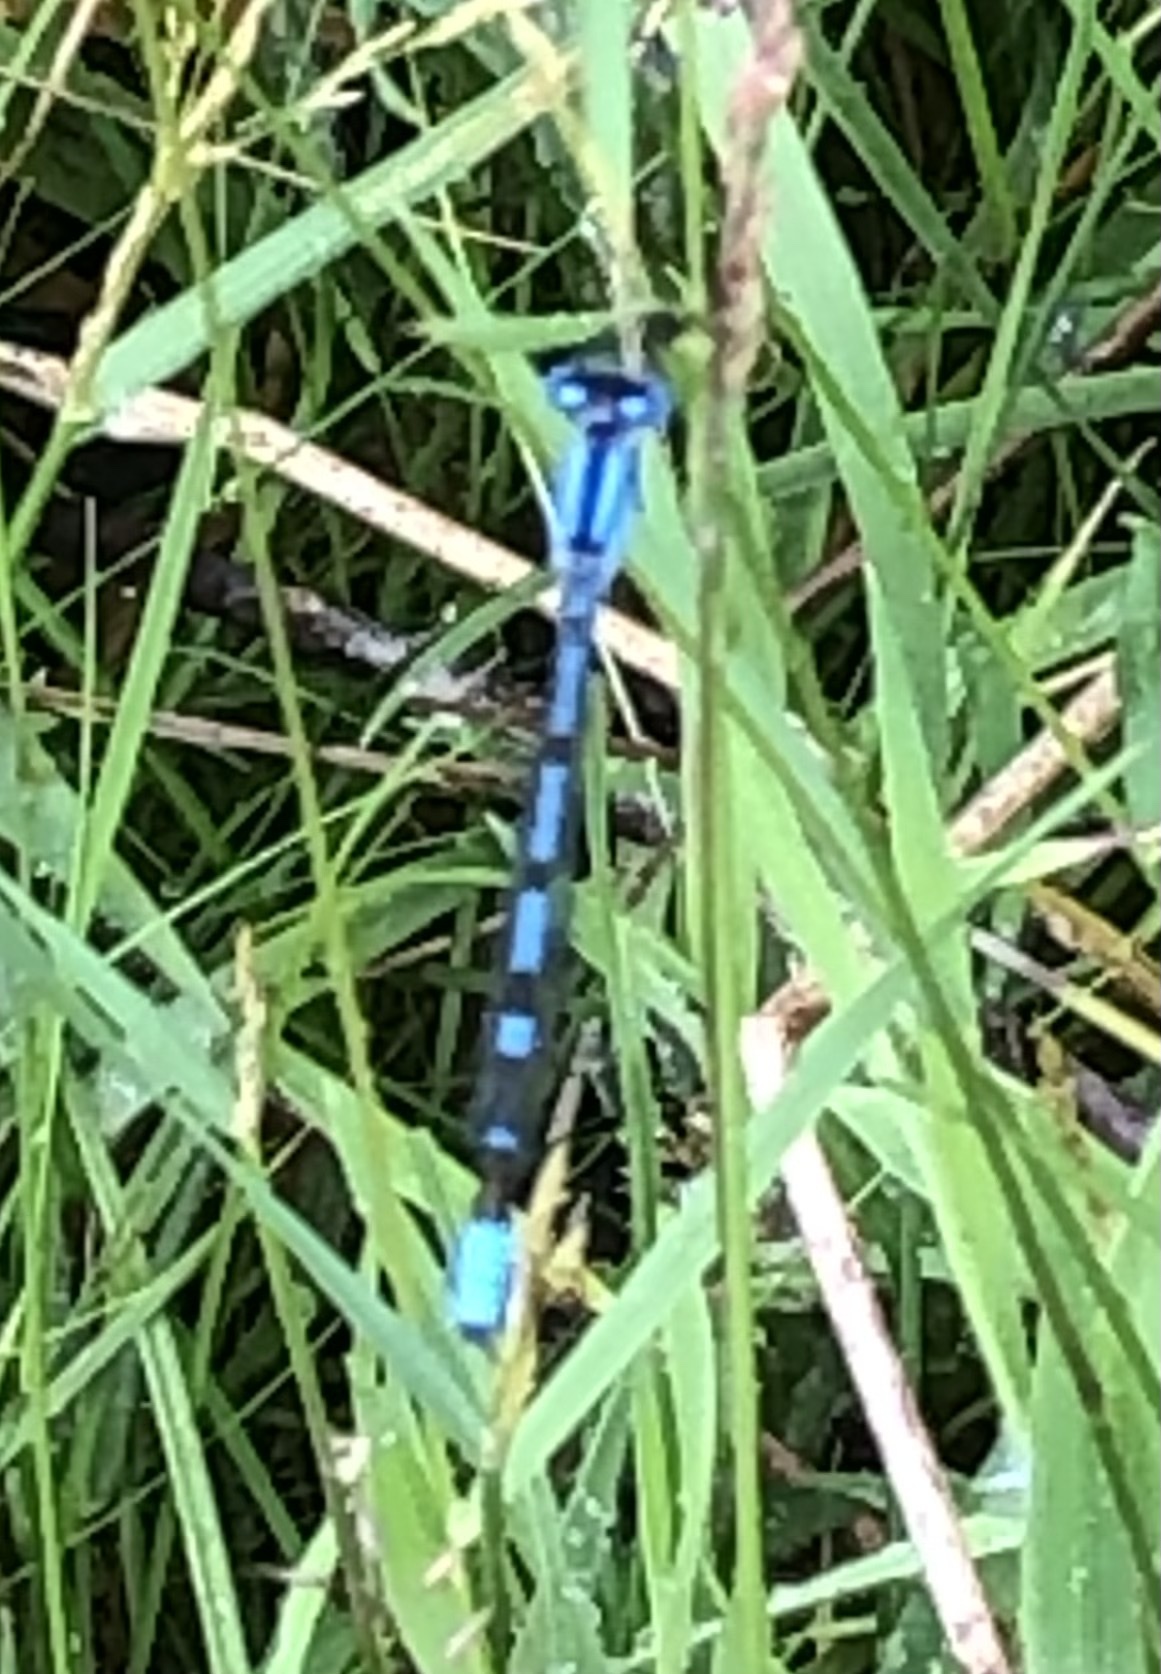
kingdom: Animalia
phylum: Arthropoda
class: Insecta
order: Odonata
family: Coenagrionidae
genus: Enallagma
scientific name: Enallagma cyathigerum
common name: Common blue damselfly
